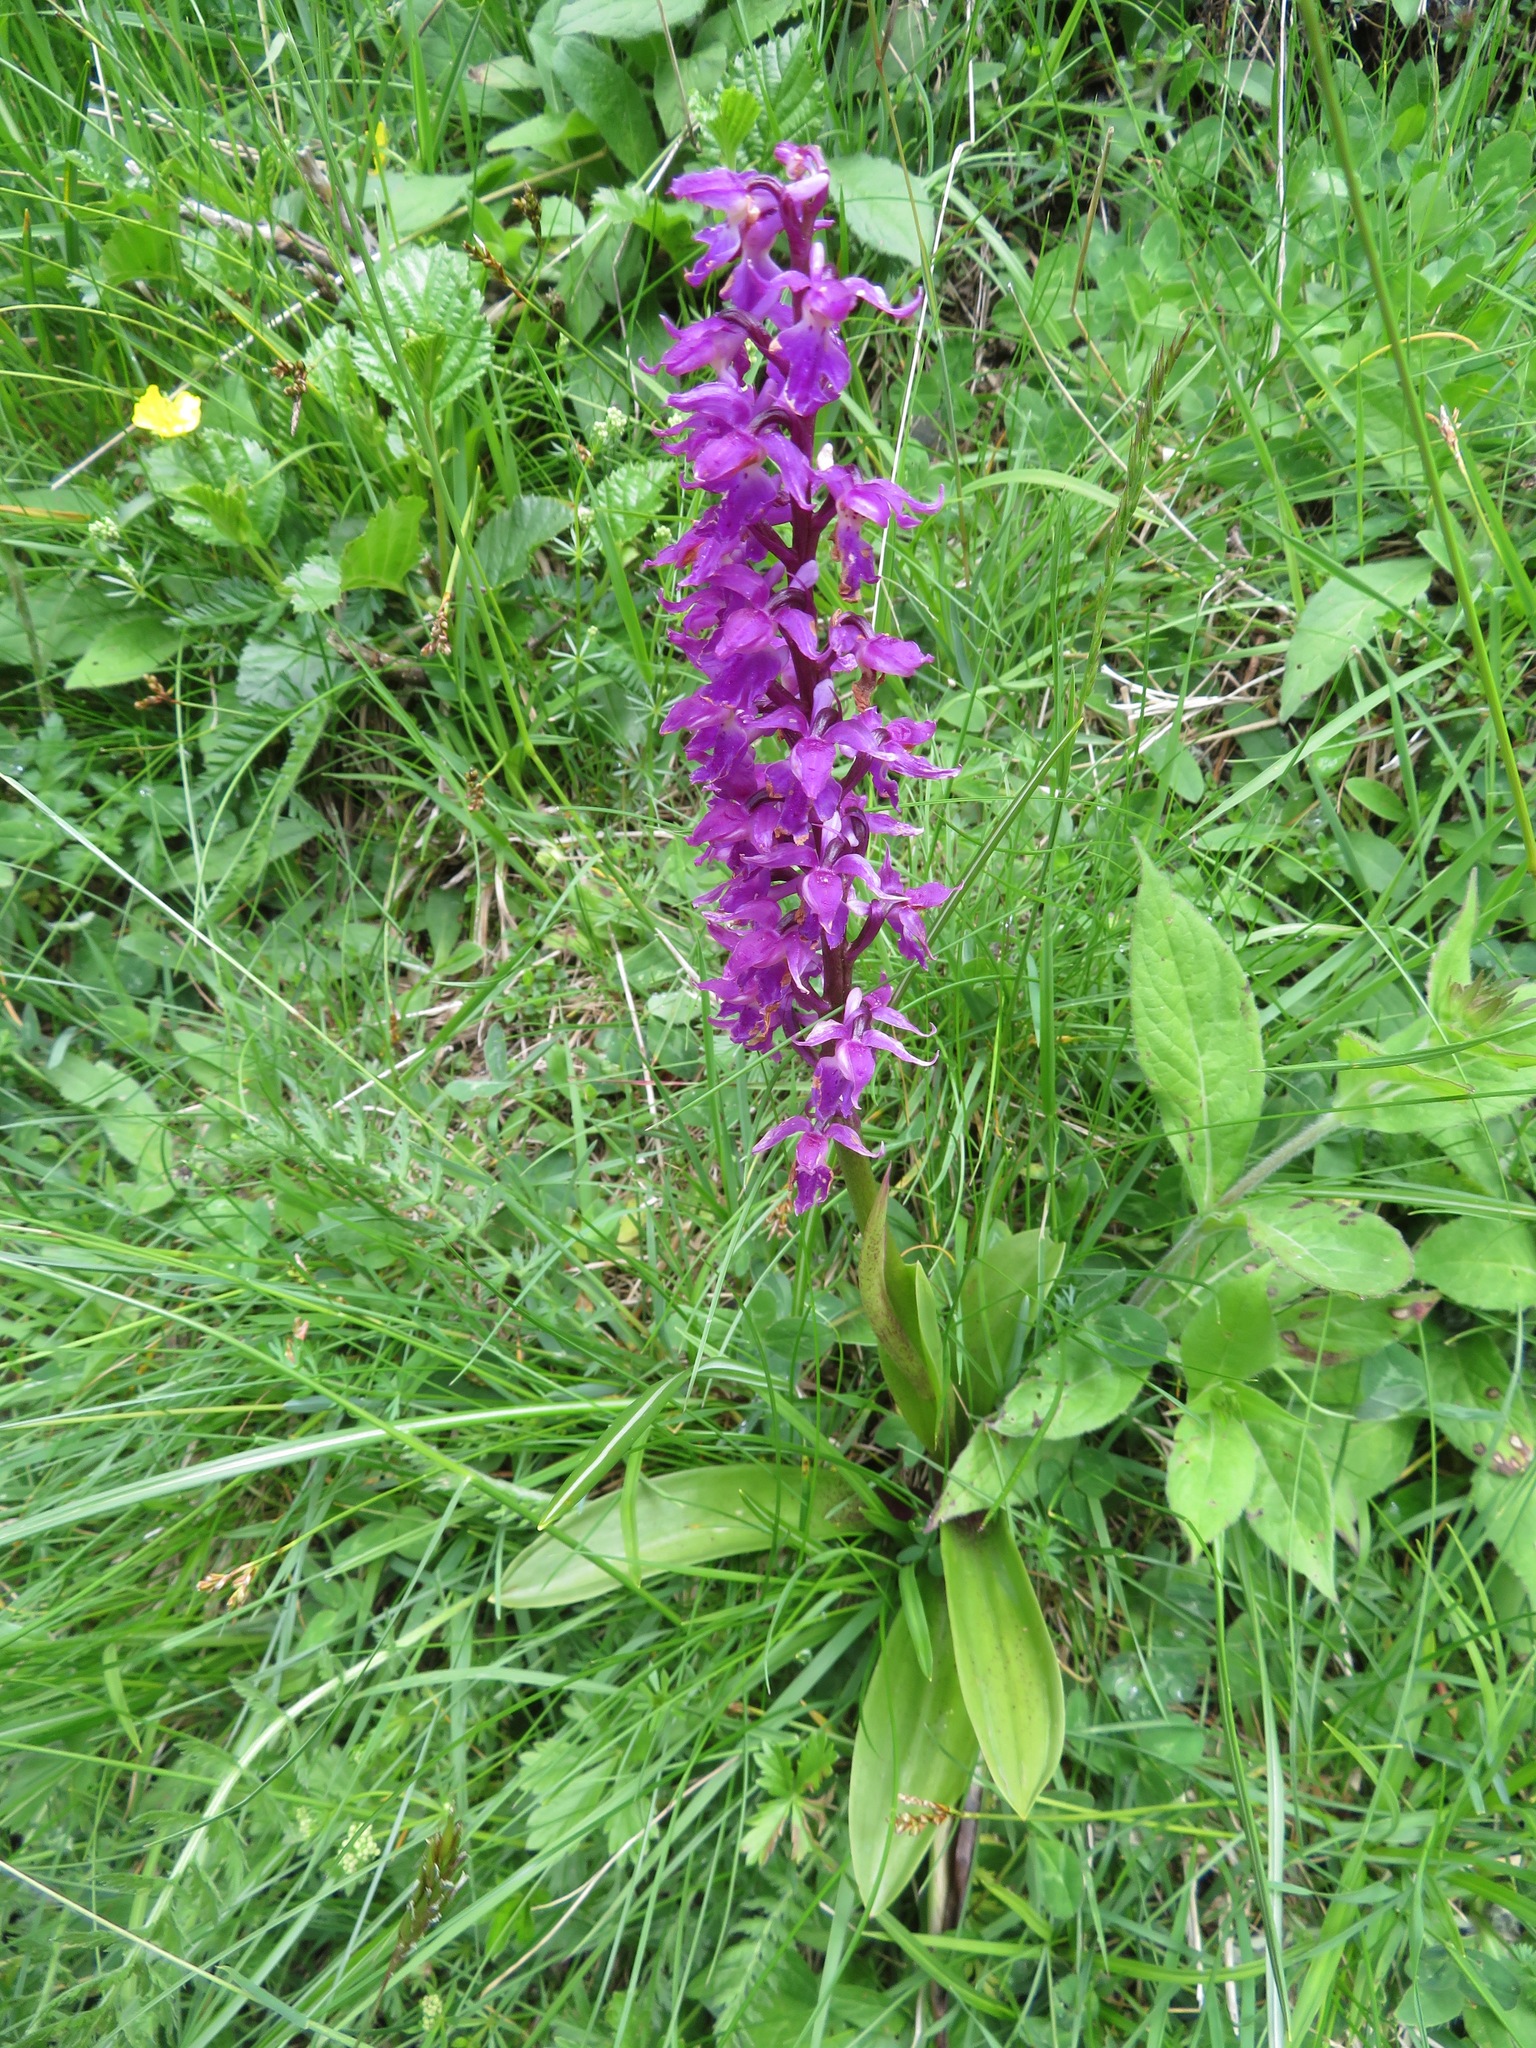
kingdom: Plantae
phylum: Tracheophyta
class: Liliopsida
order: Asparagales
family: Orchidaceae
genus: Orchis
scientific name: Orchis mascula
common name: Early-purple orchid
